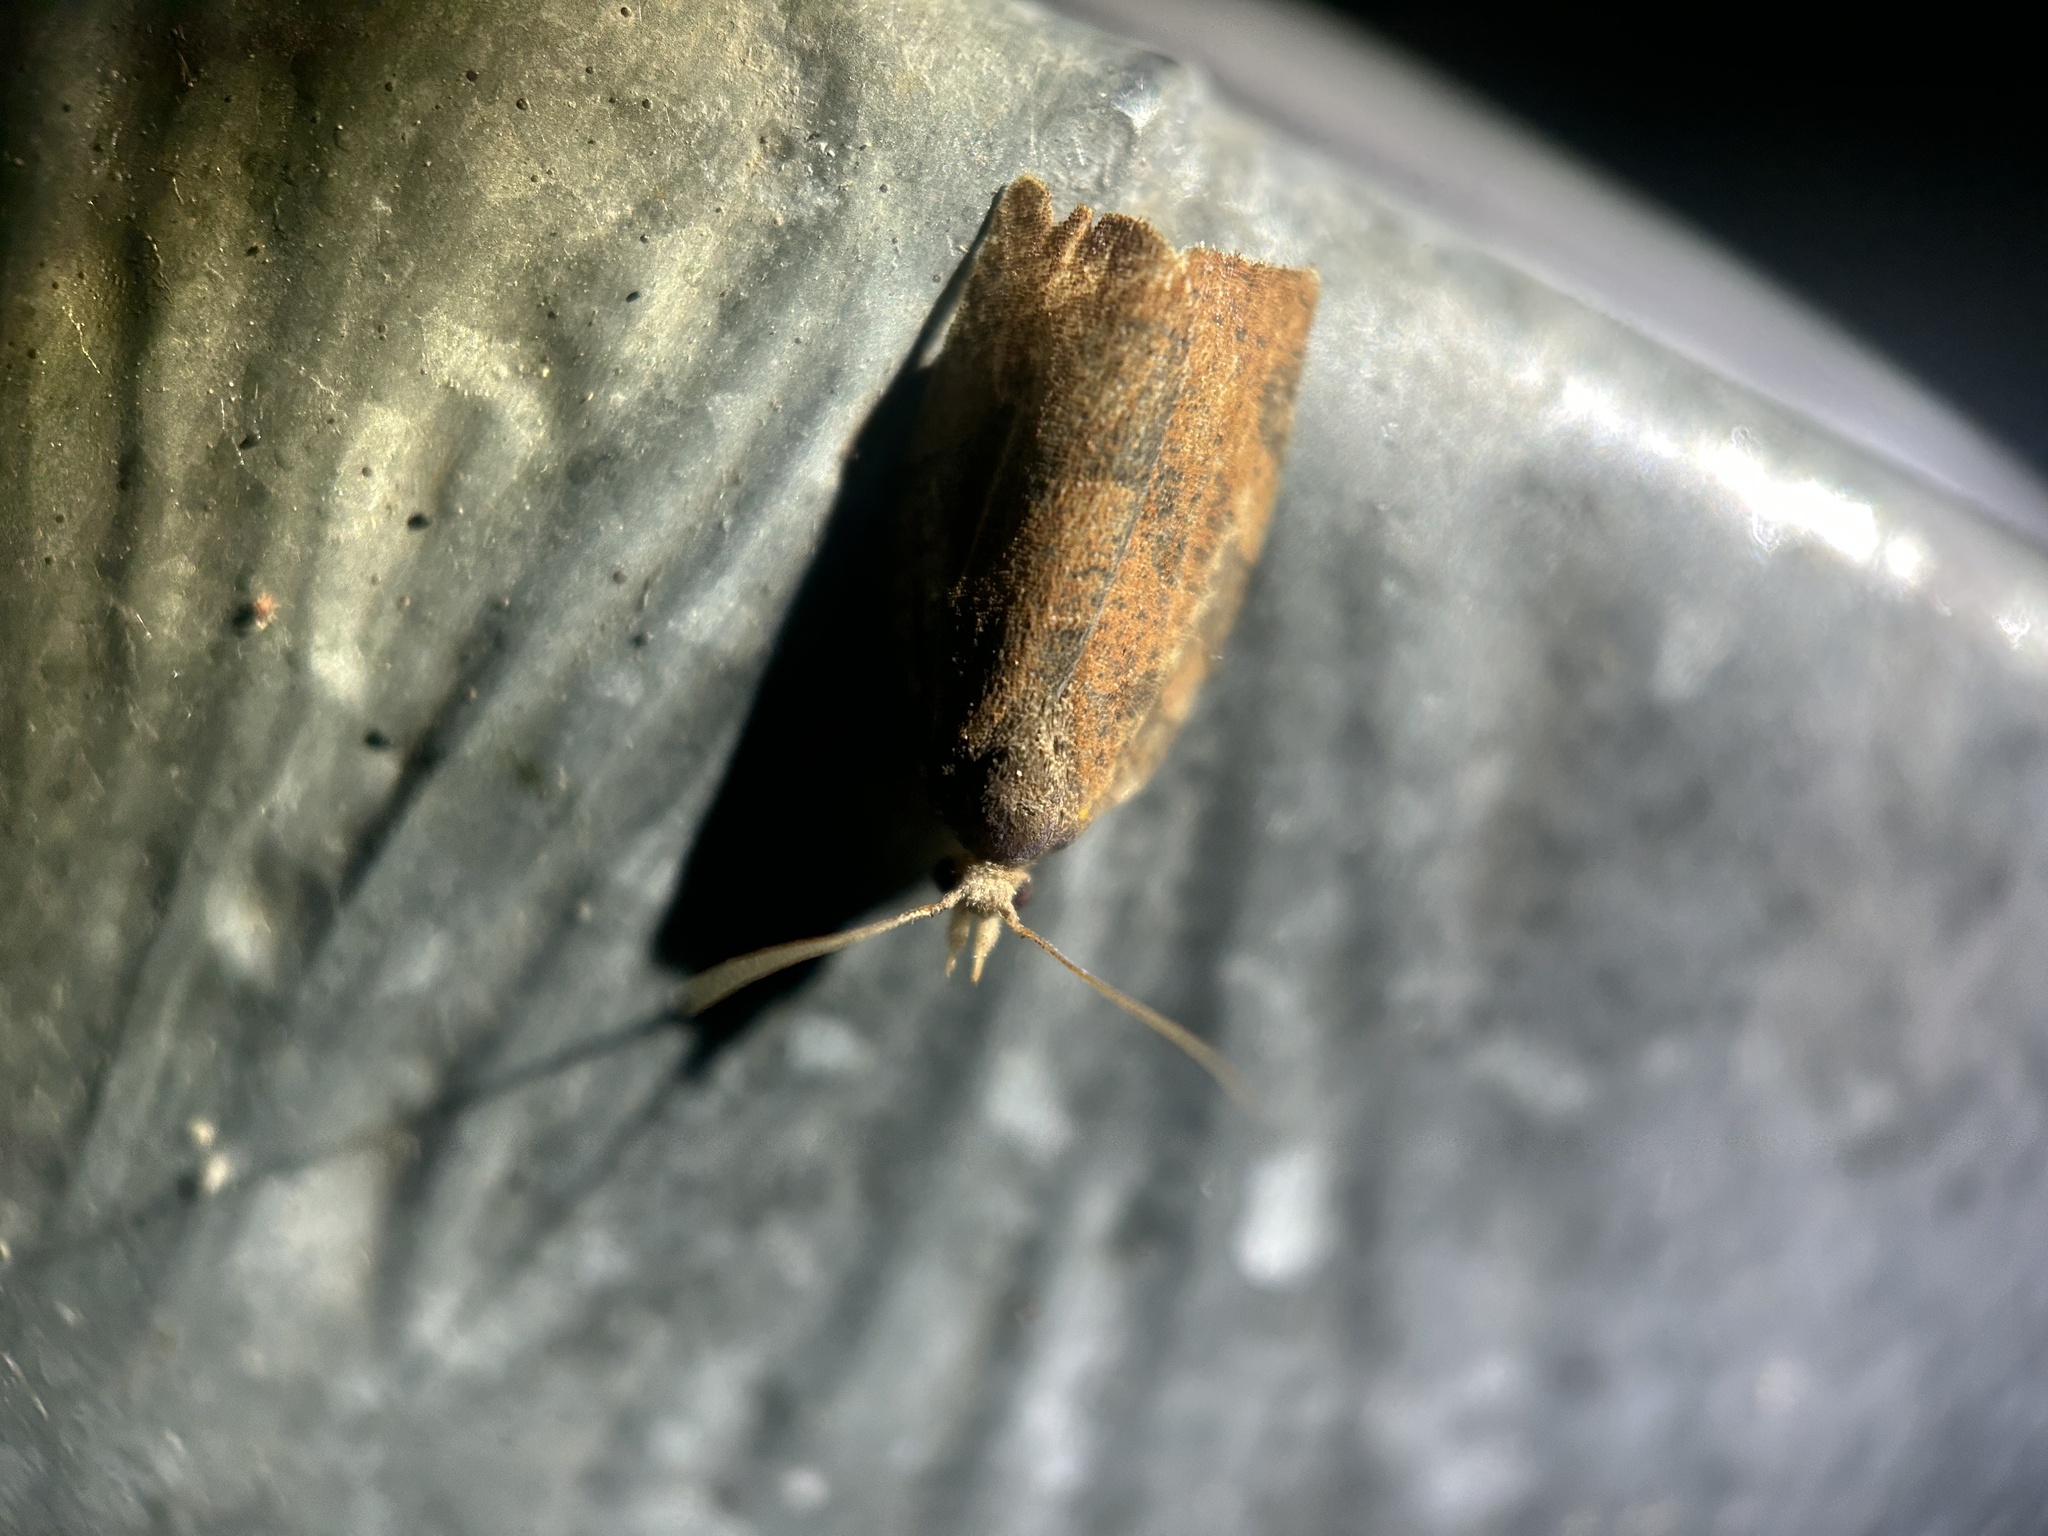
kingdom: Animalia
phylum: Arthropoda
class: Insecta
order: Lepidoptera
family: Tortricidae
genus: Pandemis
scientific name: Pandemis canadana
